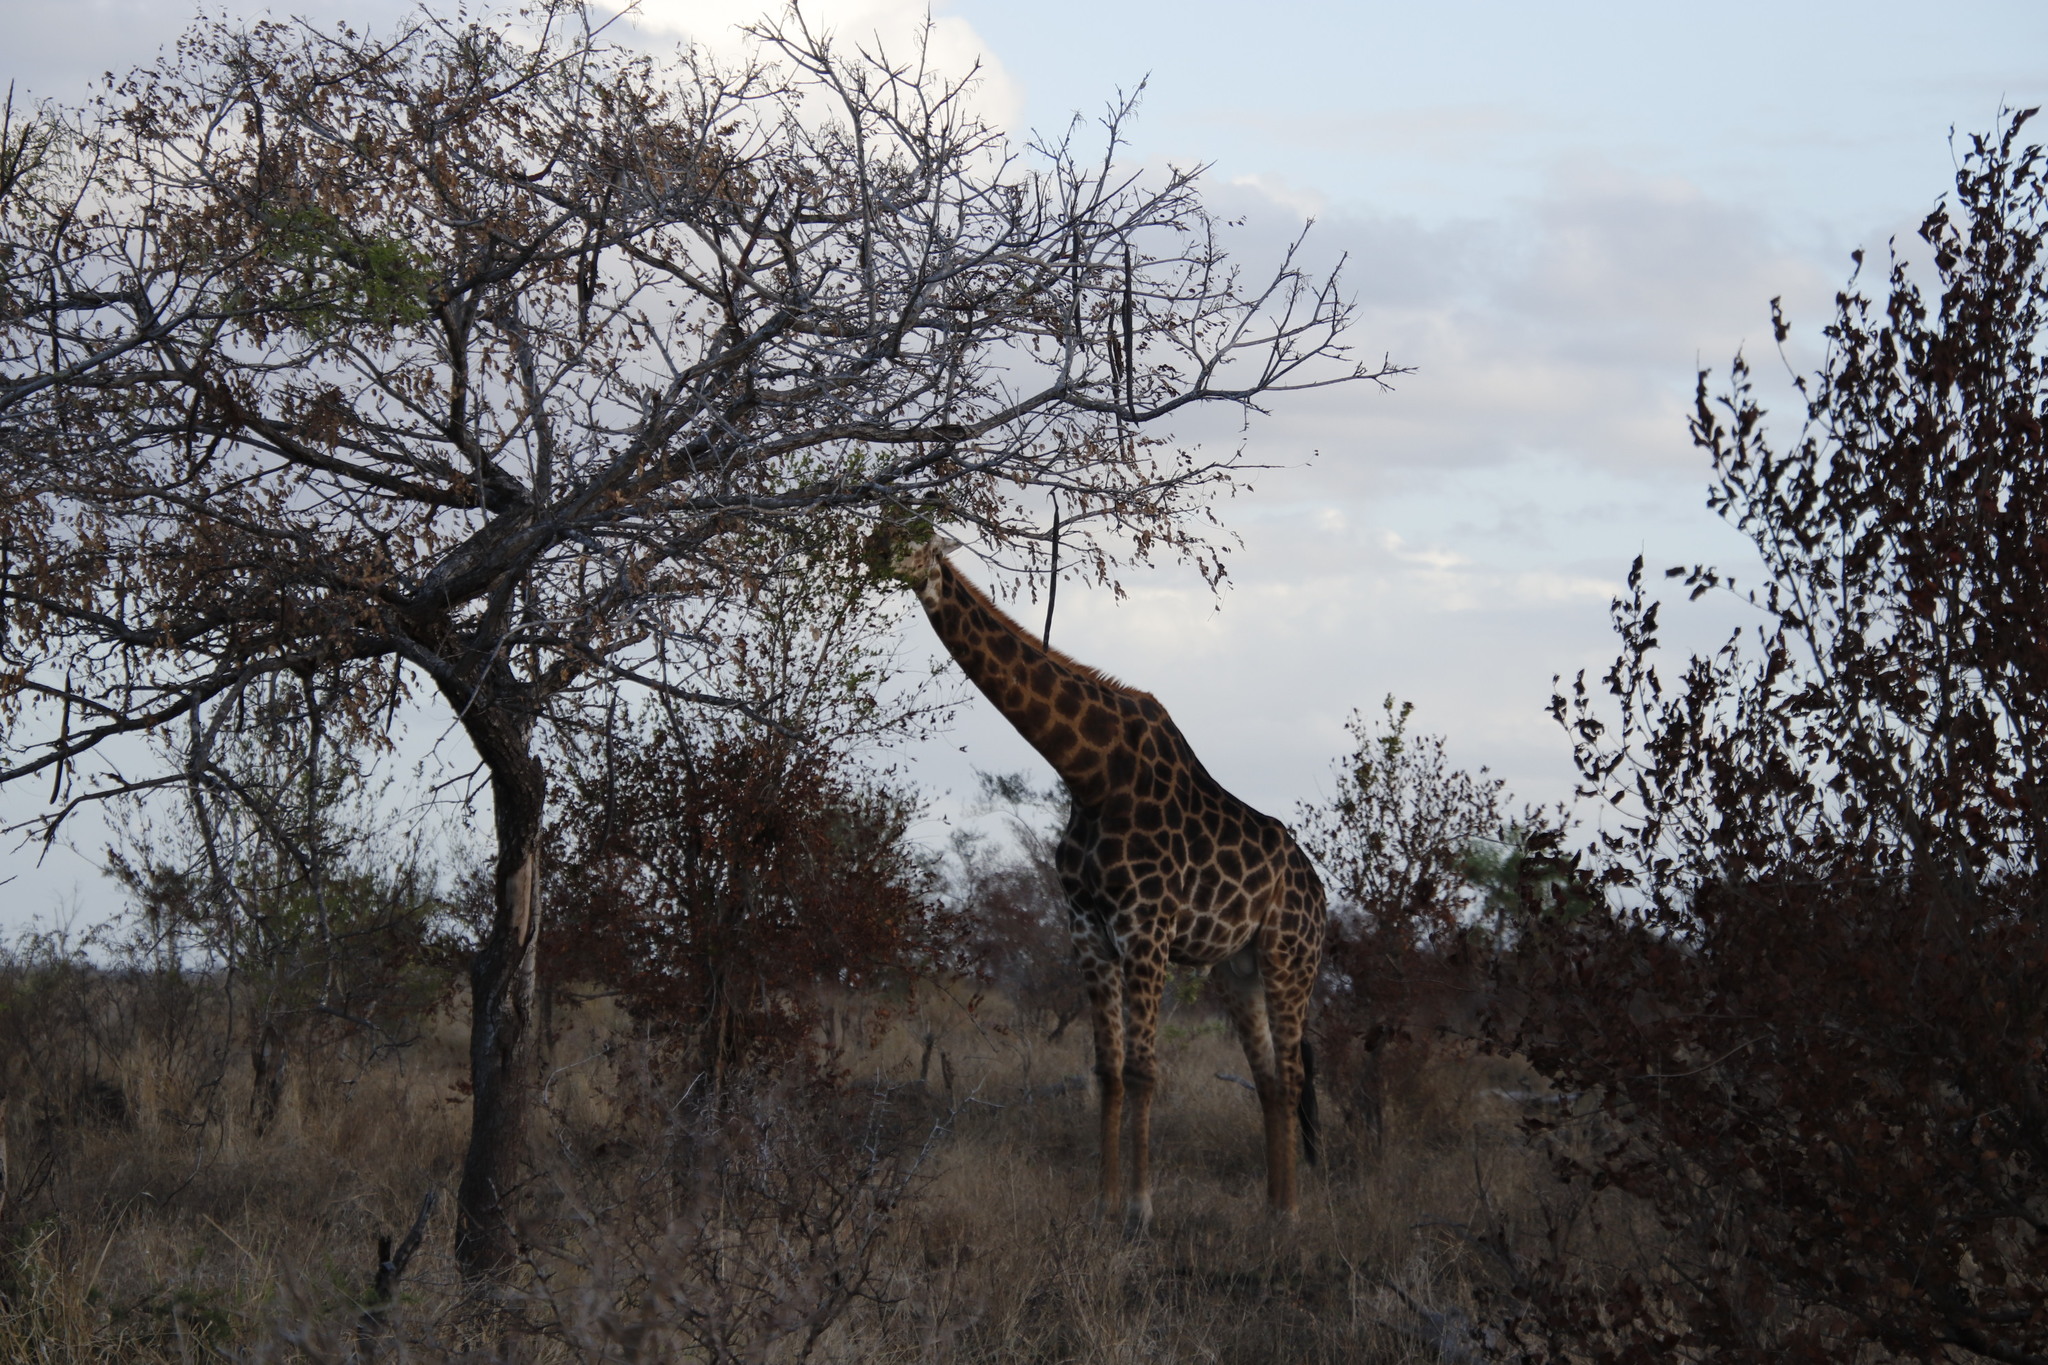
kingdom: Animalia
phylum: Chordata
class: Mammalia
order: Artiodactyla
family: Giraffidae
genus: Giraffa
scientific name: Giraffa giraffa
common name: Southern giraffe
